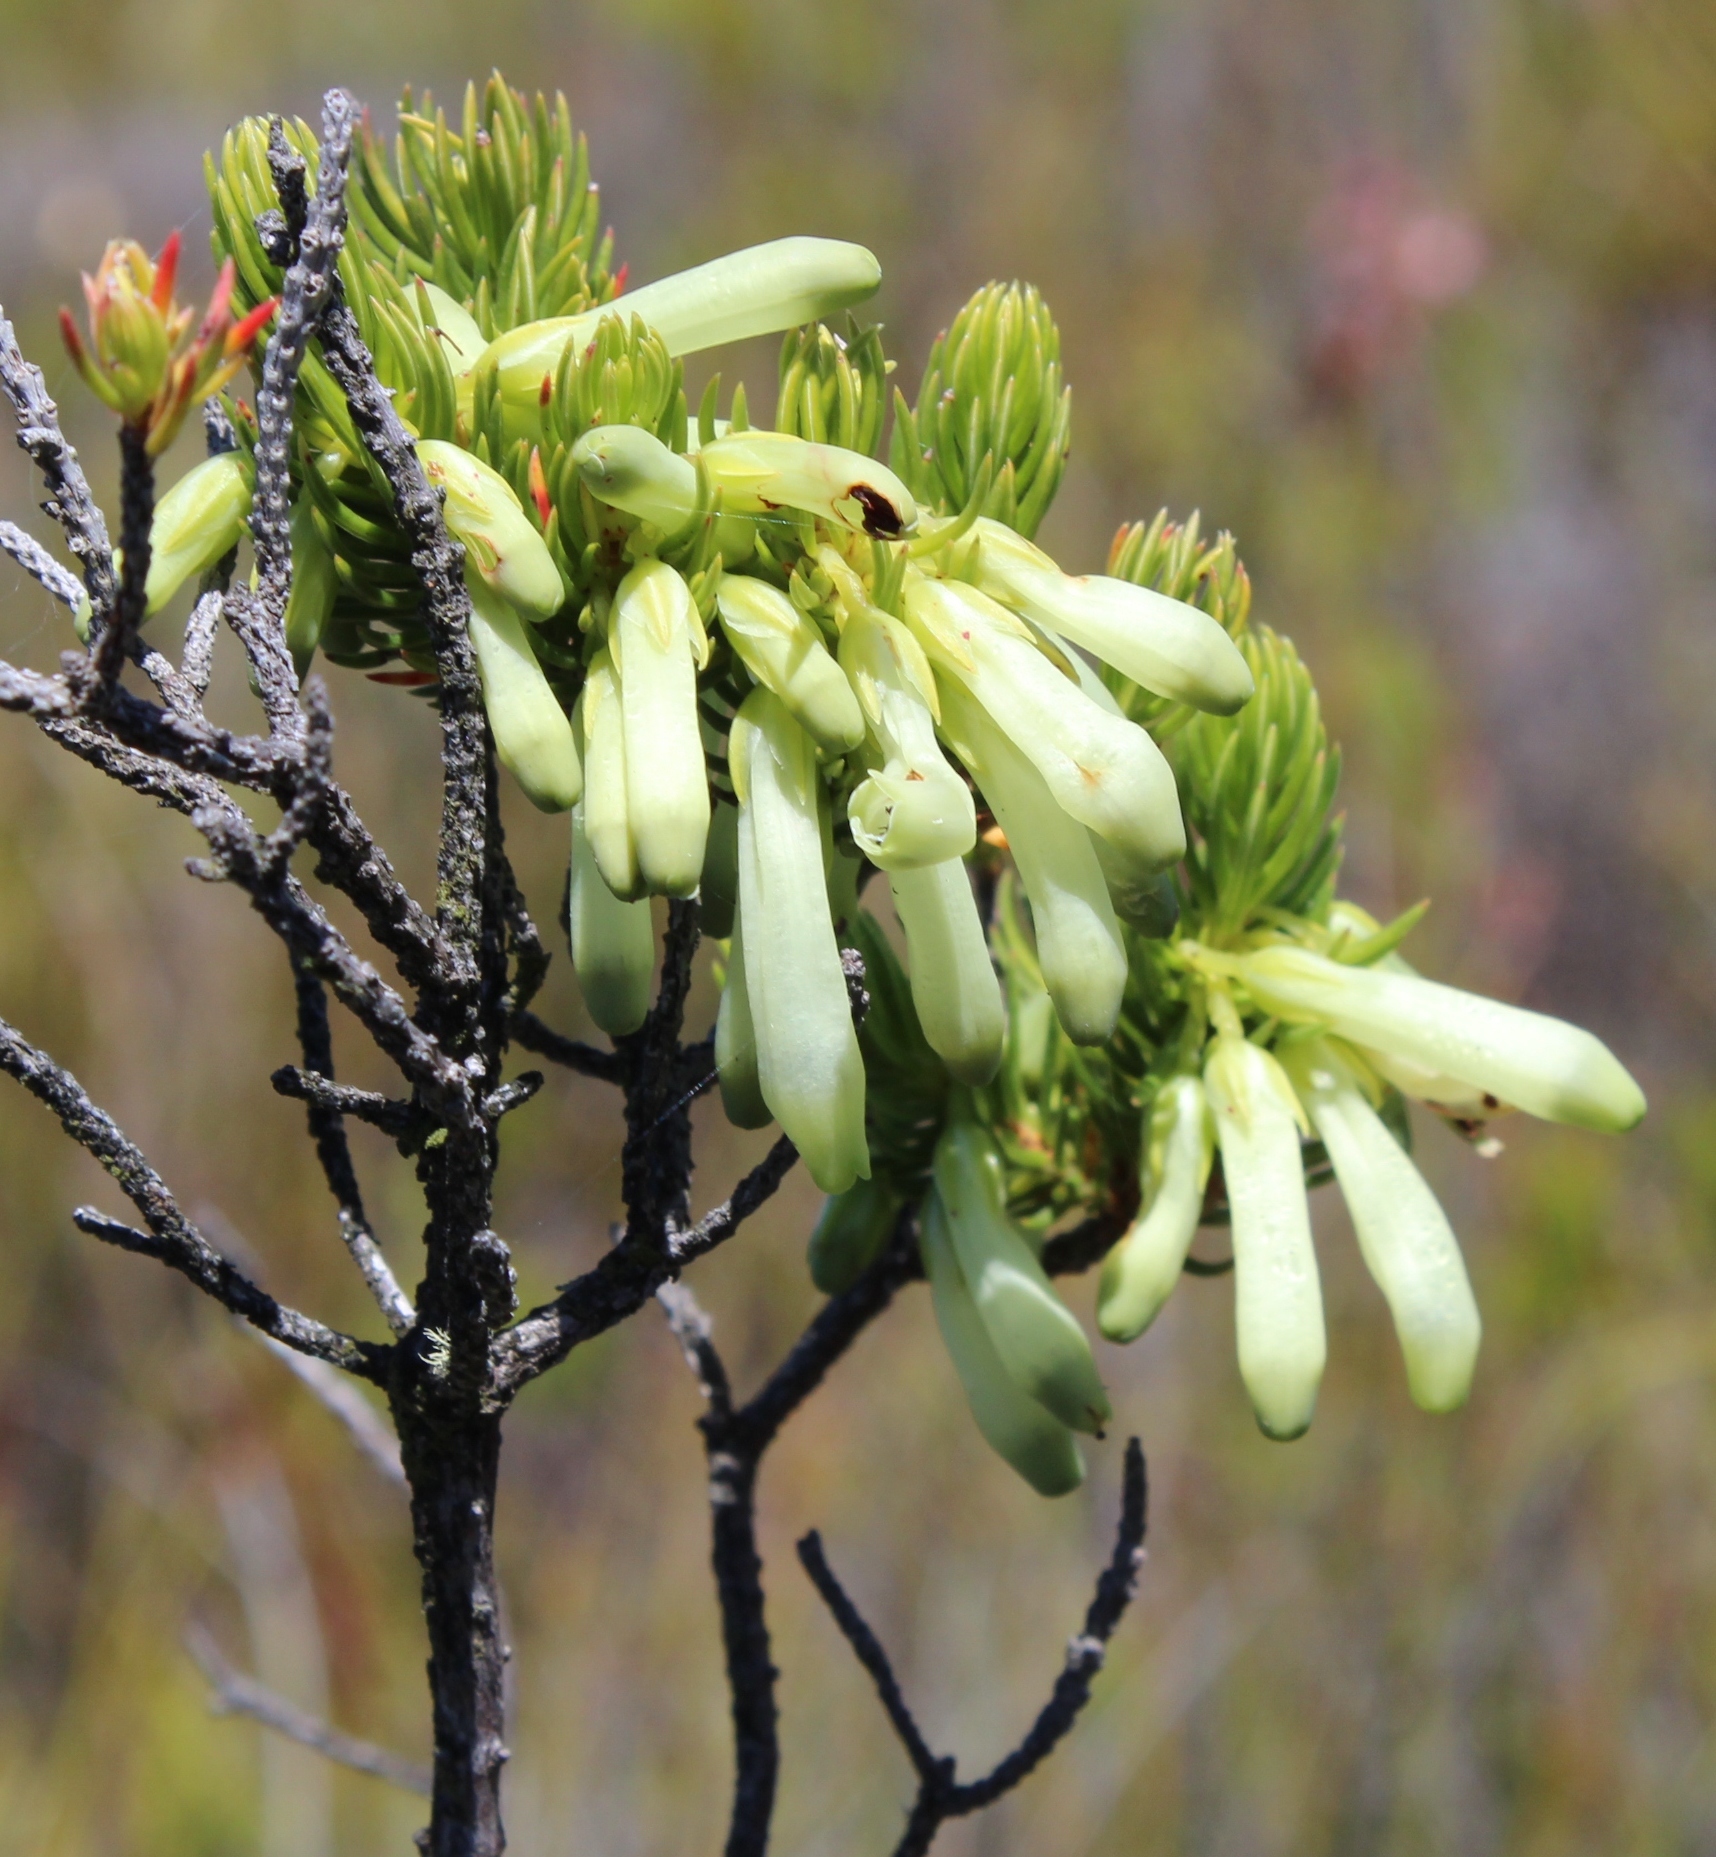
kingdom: Plantae
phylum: Tracheophyta
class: Magnoliopsida
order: Ericales
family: Ericaceae
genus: Erica
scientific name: Erica mammosa
